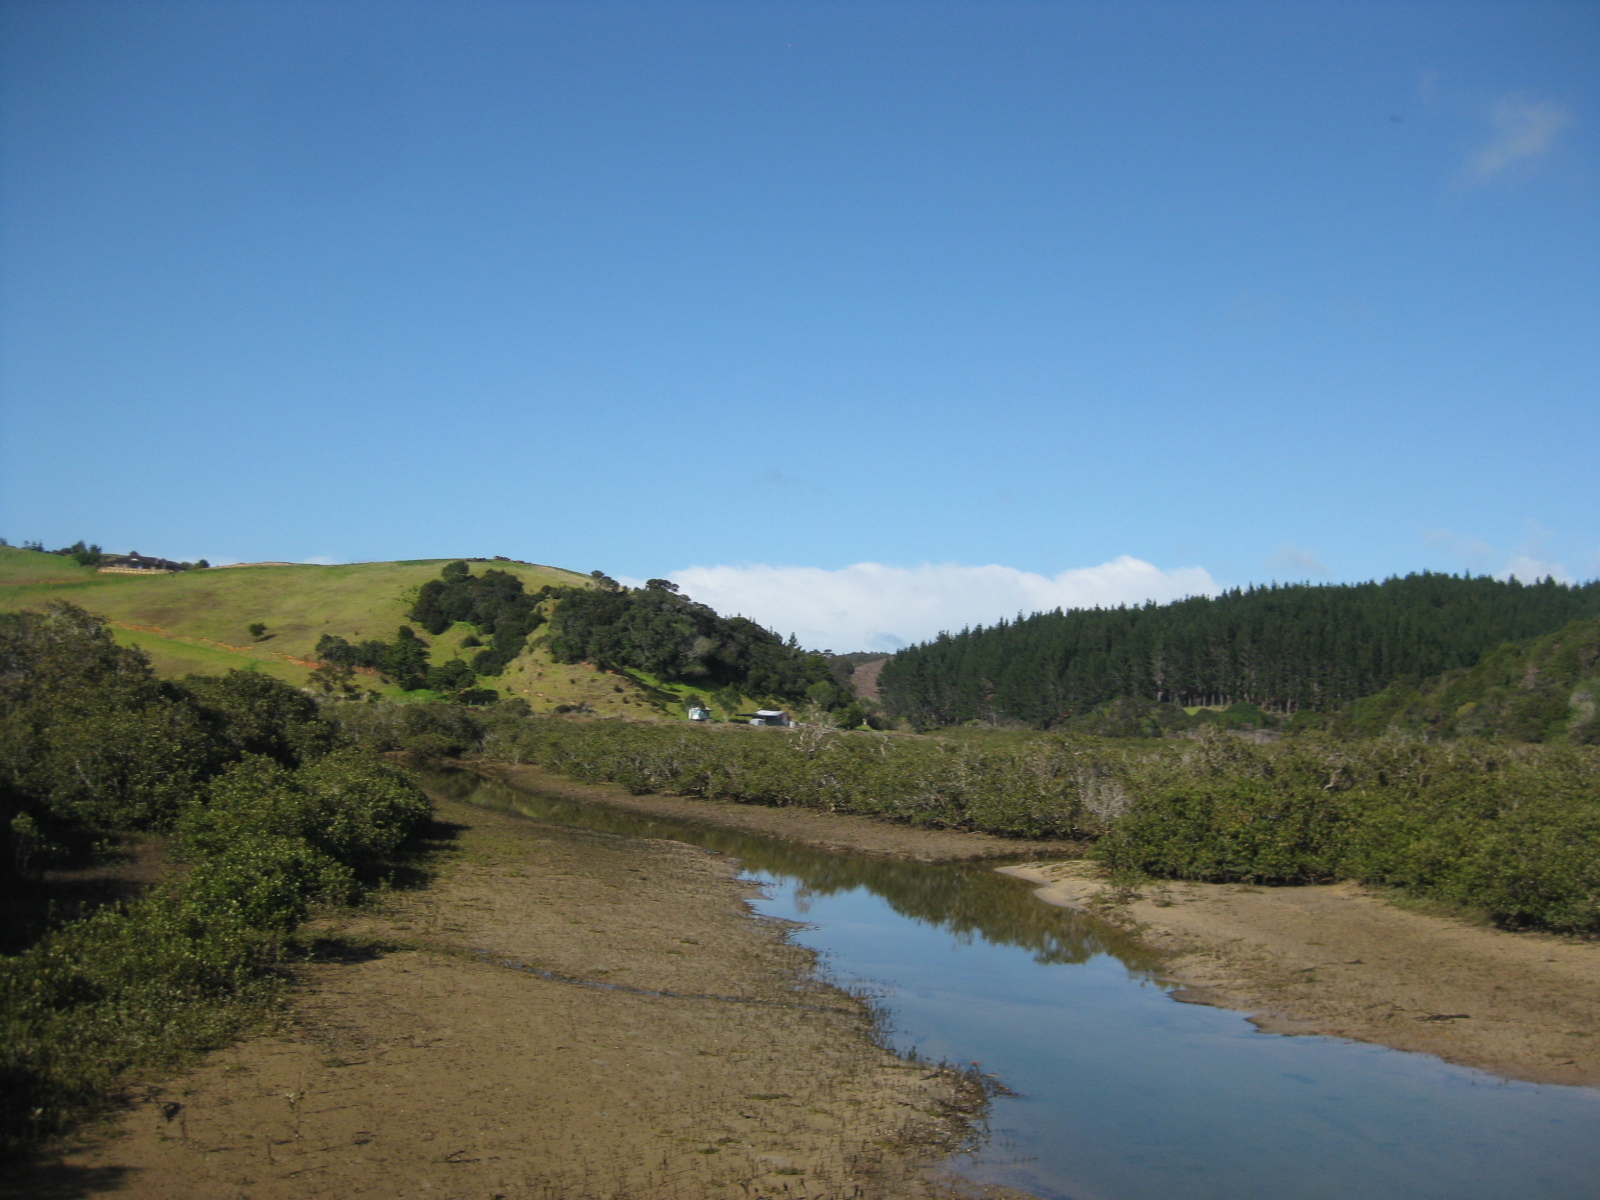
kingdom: Plantae
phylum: Tracheophyta
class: Magnoliopsida
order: Lamiales
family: Acanthaceae
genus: Avicennia
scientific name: Avicennia marina
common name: Gray mangrove
